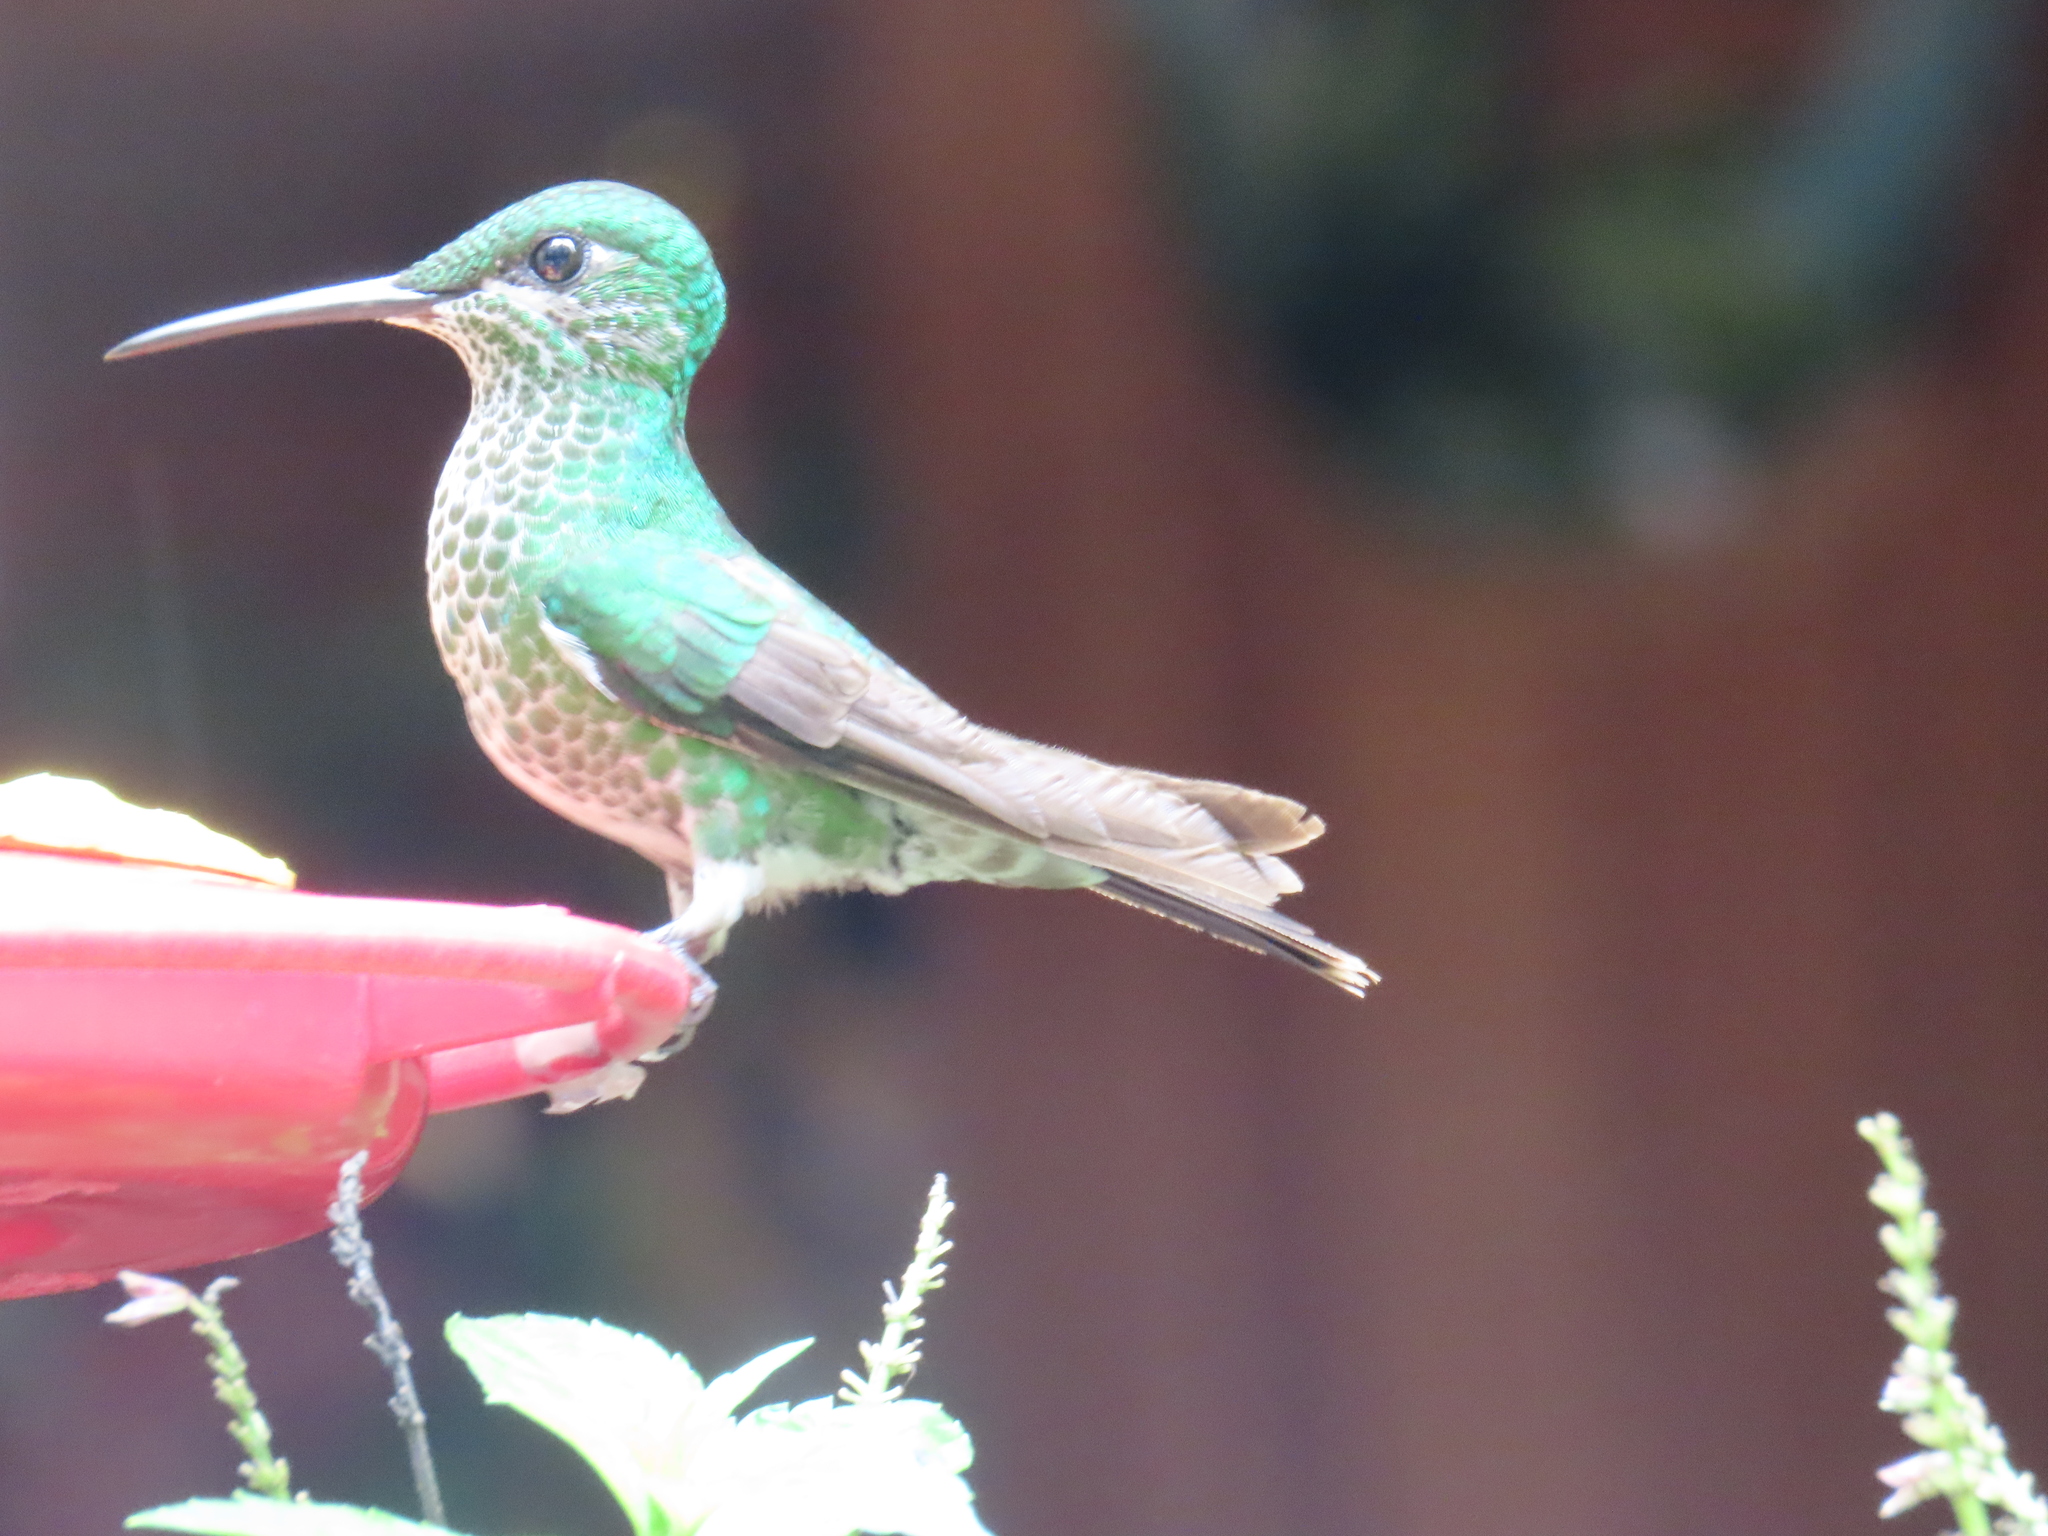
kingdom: Animalia
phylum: Chordata
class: Aves
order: Apodiformes
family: Trochilidae
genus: Heliodoxa
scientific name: Heliodoxa jacula
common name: Green-crowned brilliant
